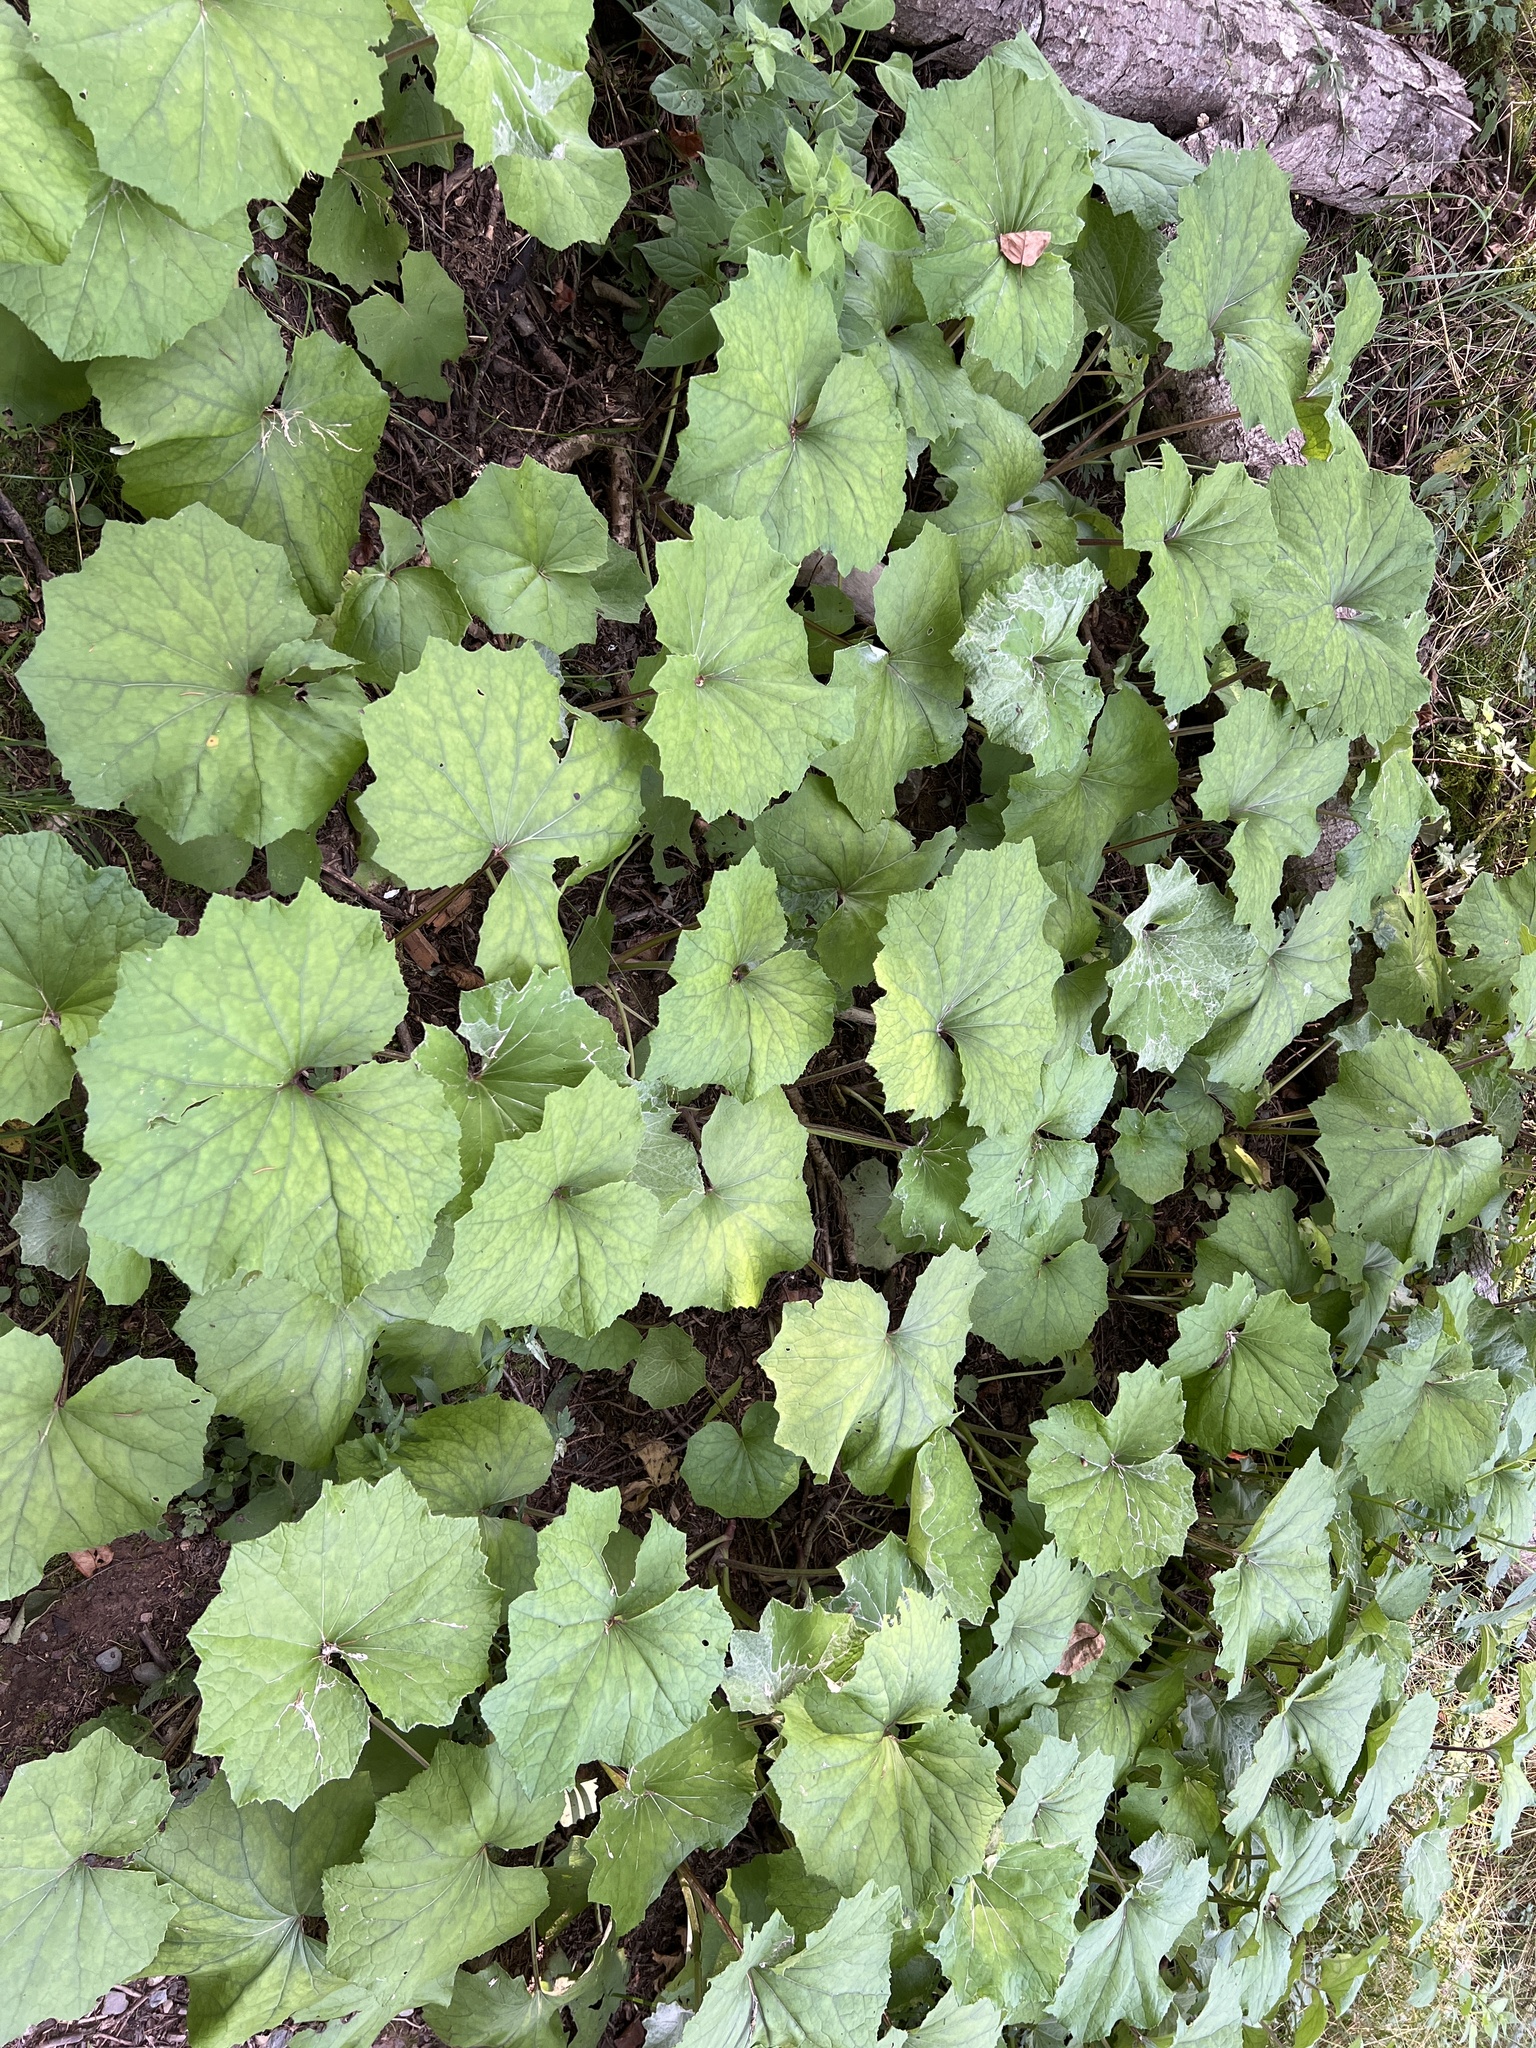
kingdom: Plantae
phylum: Tracheophyta
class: Magnoliopsida
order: Asterales
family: Asteraceae
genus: Tussilago
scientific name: Tussilago farfara
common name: Coltsfoot
